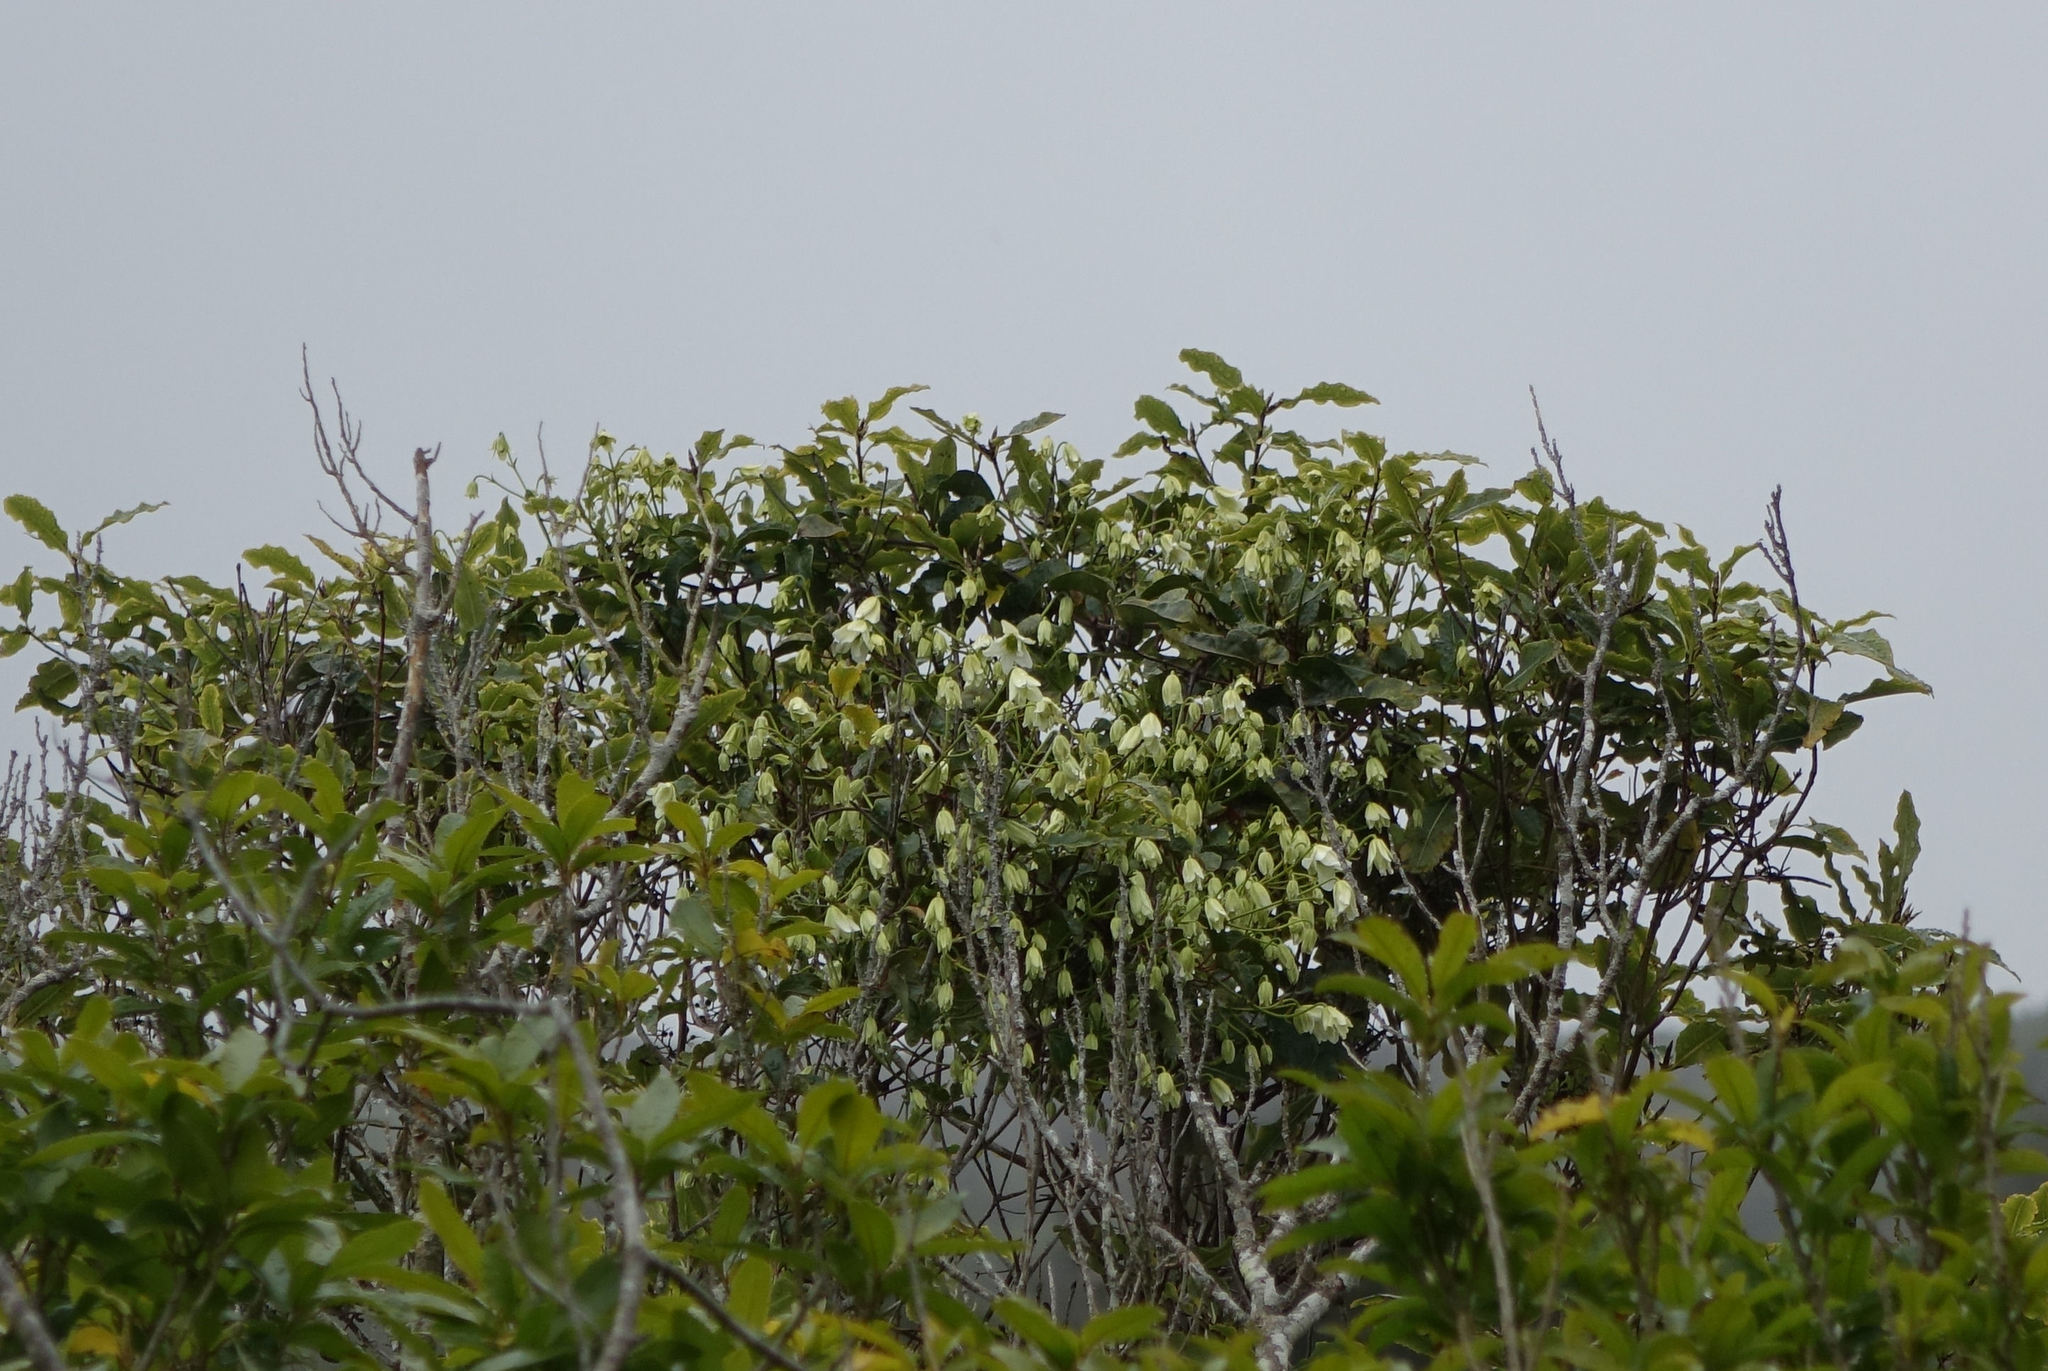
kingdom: Plantae
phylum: Tracheophyta
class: Magnoliopsida
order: Ranunculales
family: Ranunculaceae
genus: Clematis
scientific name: Clematis paniculata
